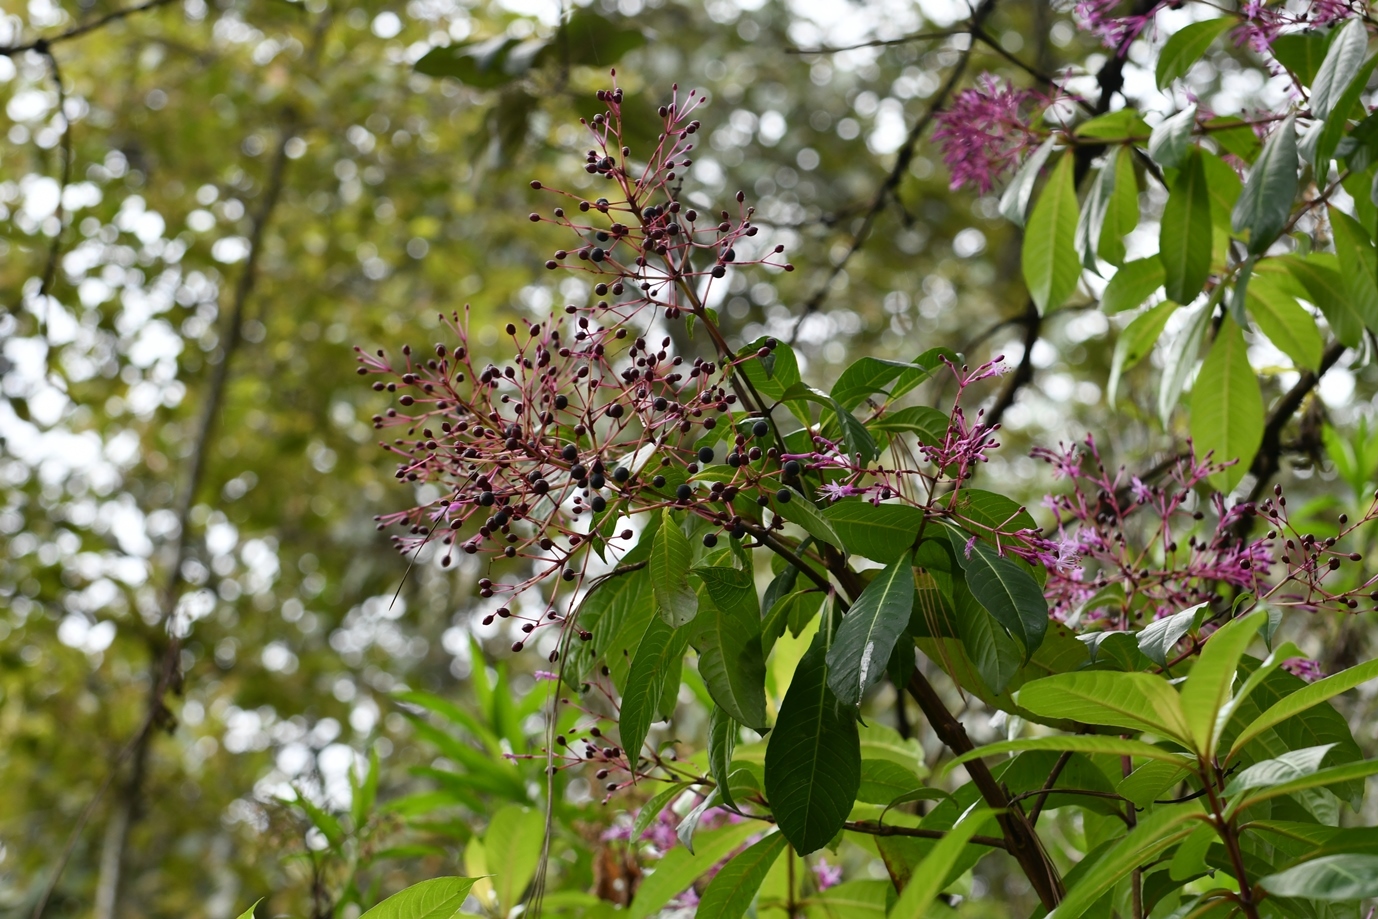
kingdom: Plantae
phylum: Tracheophyta
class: Magnoliopsida
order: Myrtales
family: Onagraceae
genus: Fuchsia
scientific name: Fuchsia paniculata
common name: Shrubby fuchsia
